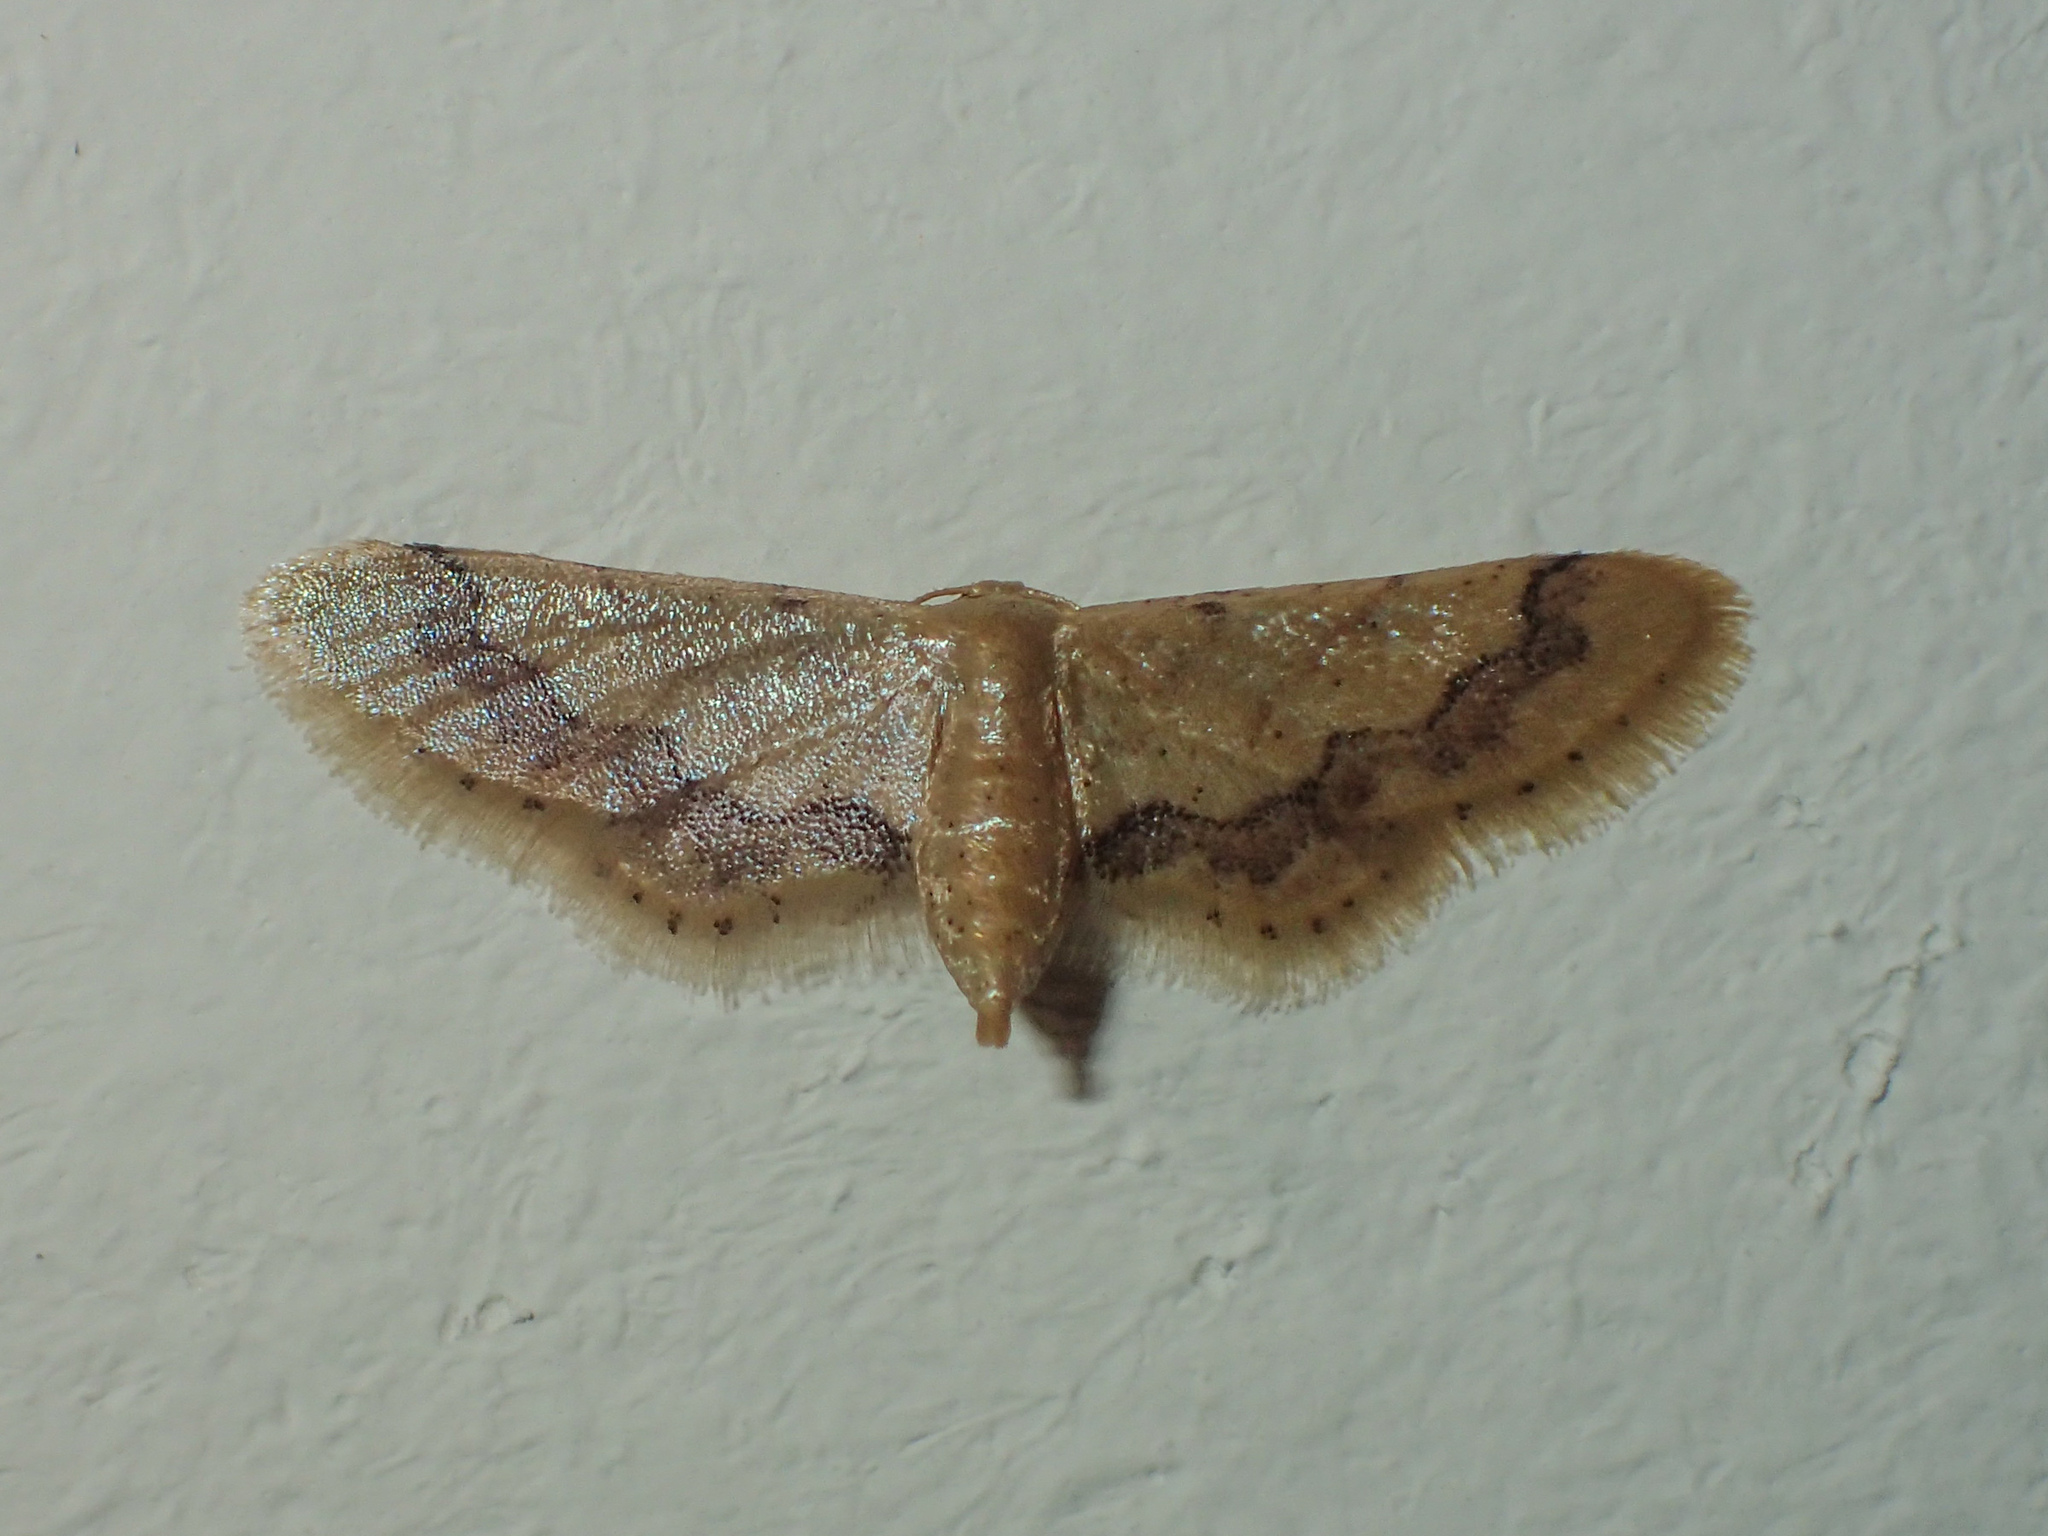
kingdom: Animalia
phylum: Arthropoda
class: Insecta
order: Lepidoptera
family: Geometridae
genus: Idaea
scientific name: Idaea violacea
